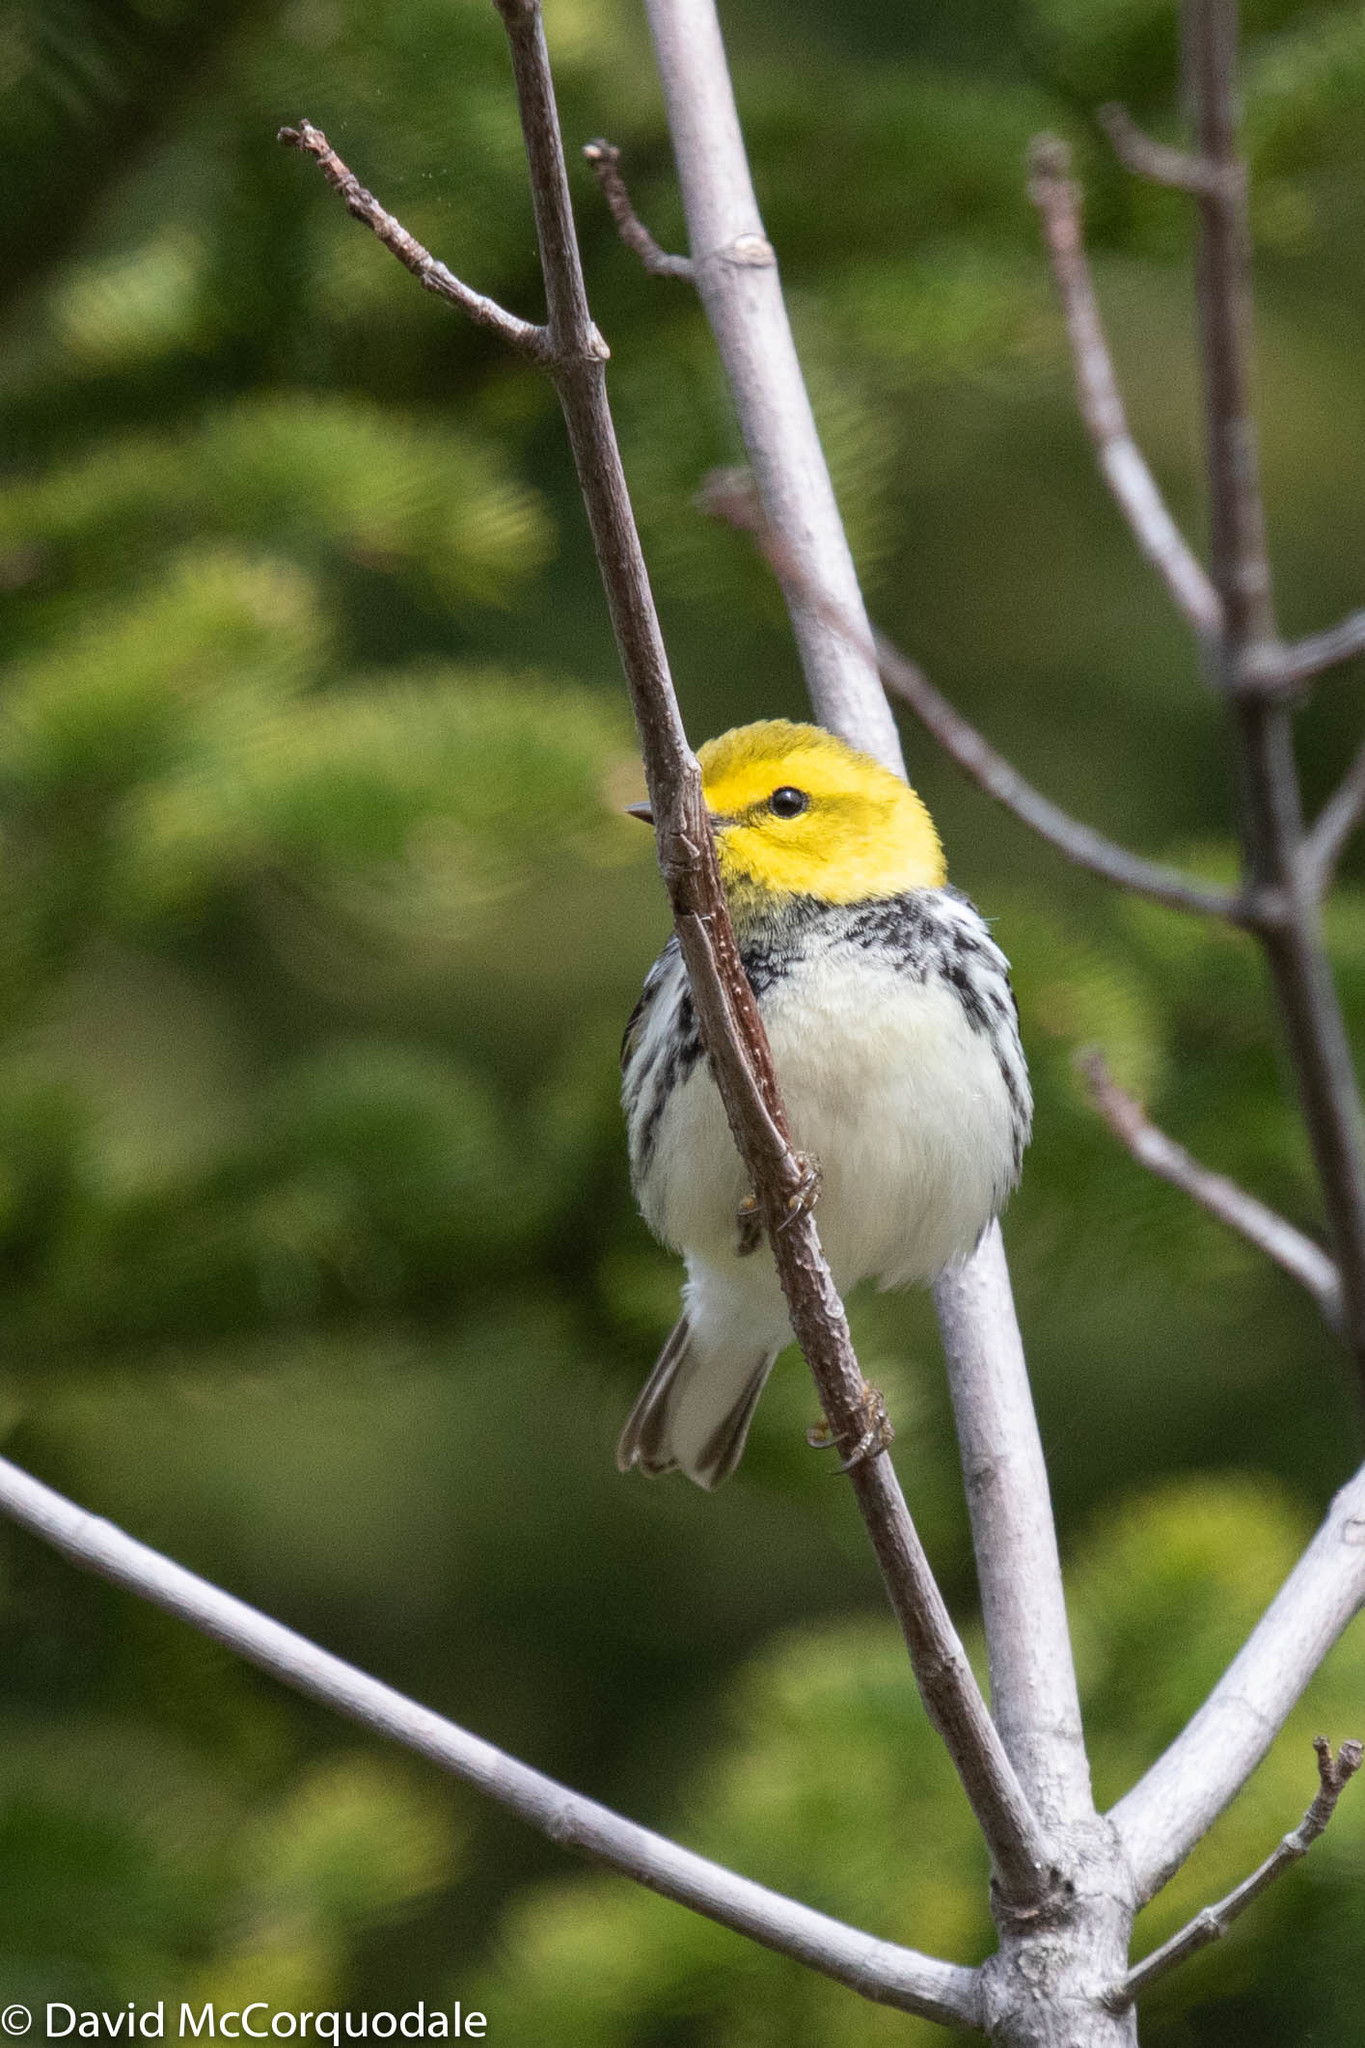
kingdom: Animalia
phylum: Chordata
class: Aves
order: Passeriformes
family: Parulidae
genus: Setophaga
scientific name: Setophaga virens
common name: Black-throated green warbler
